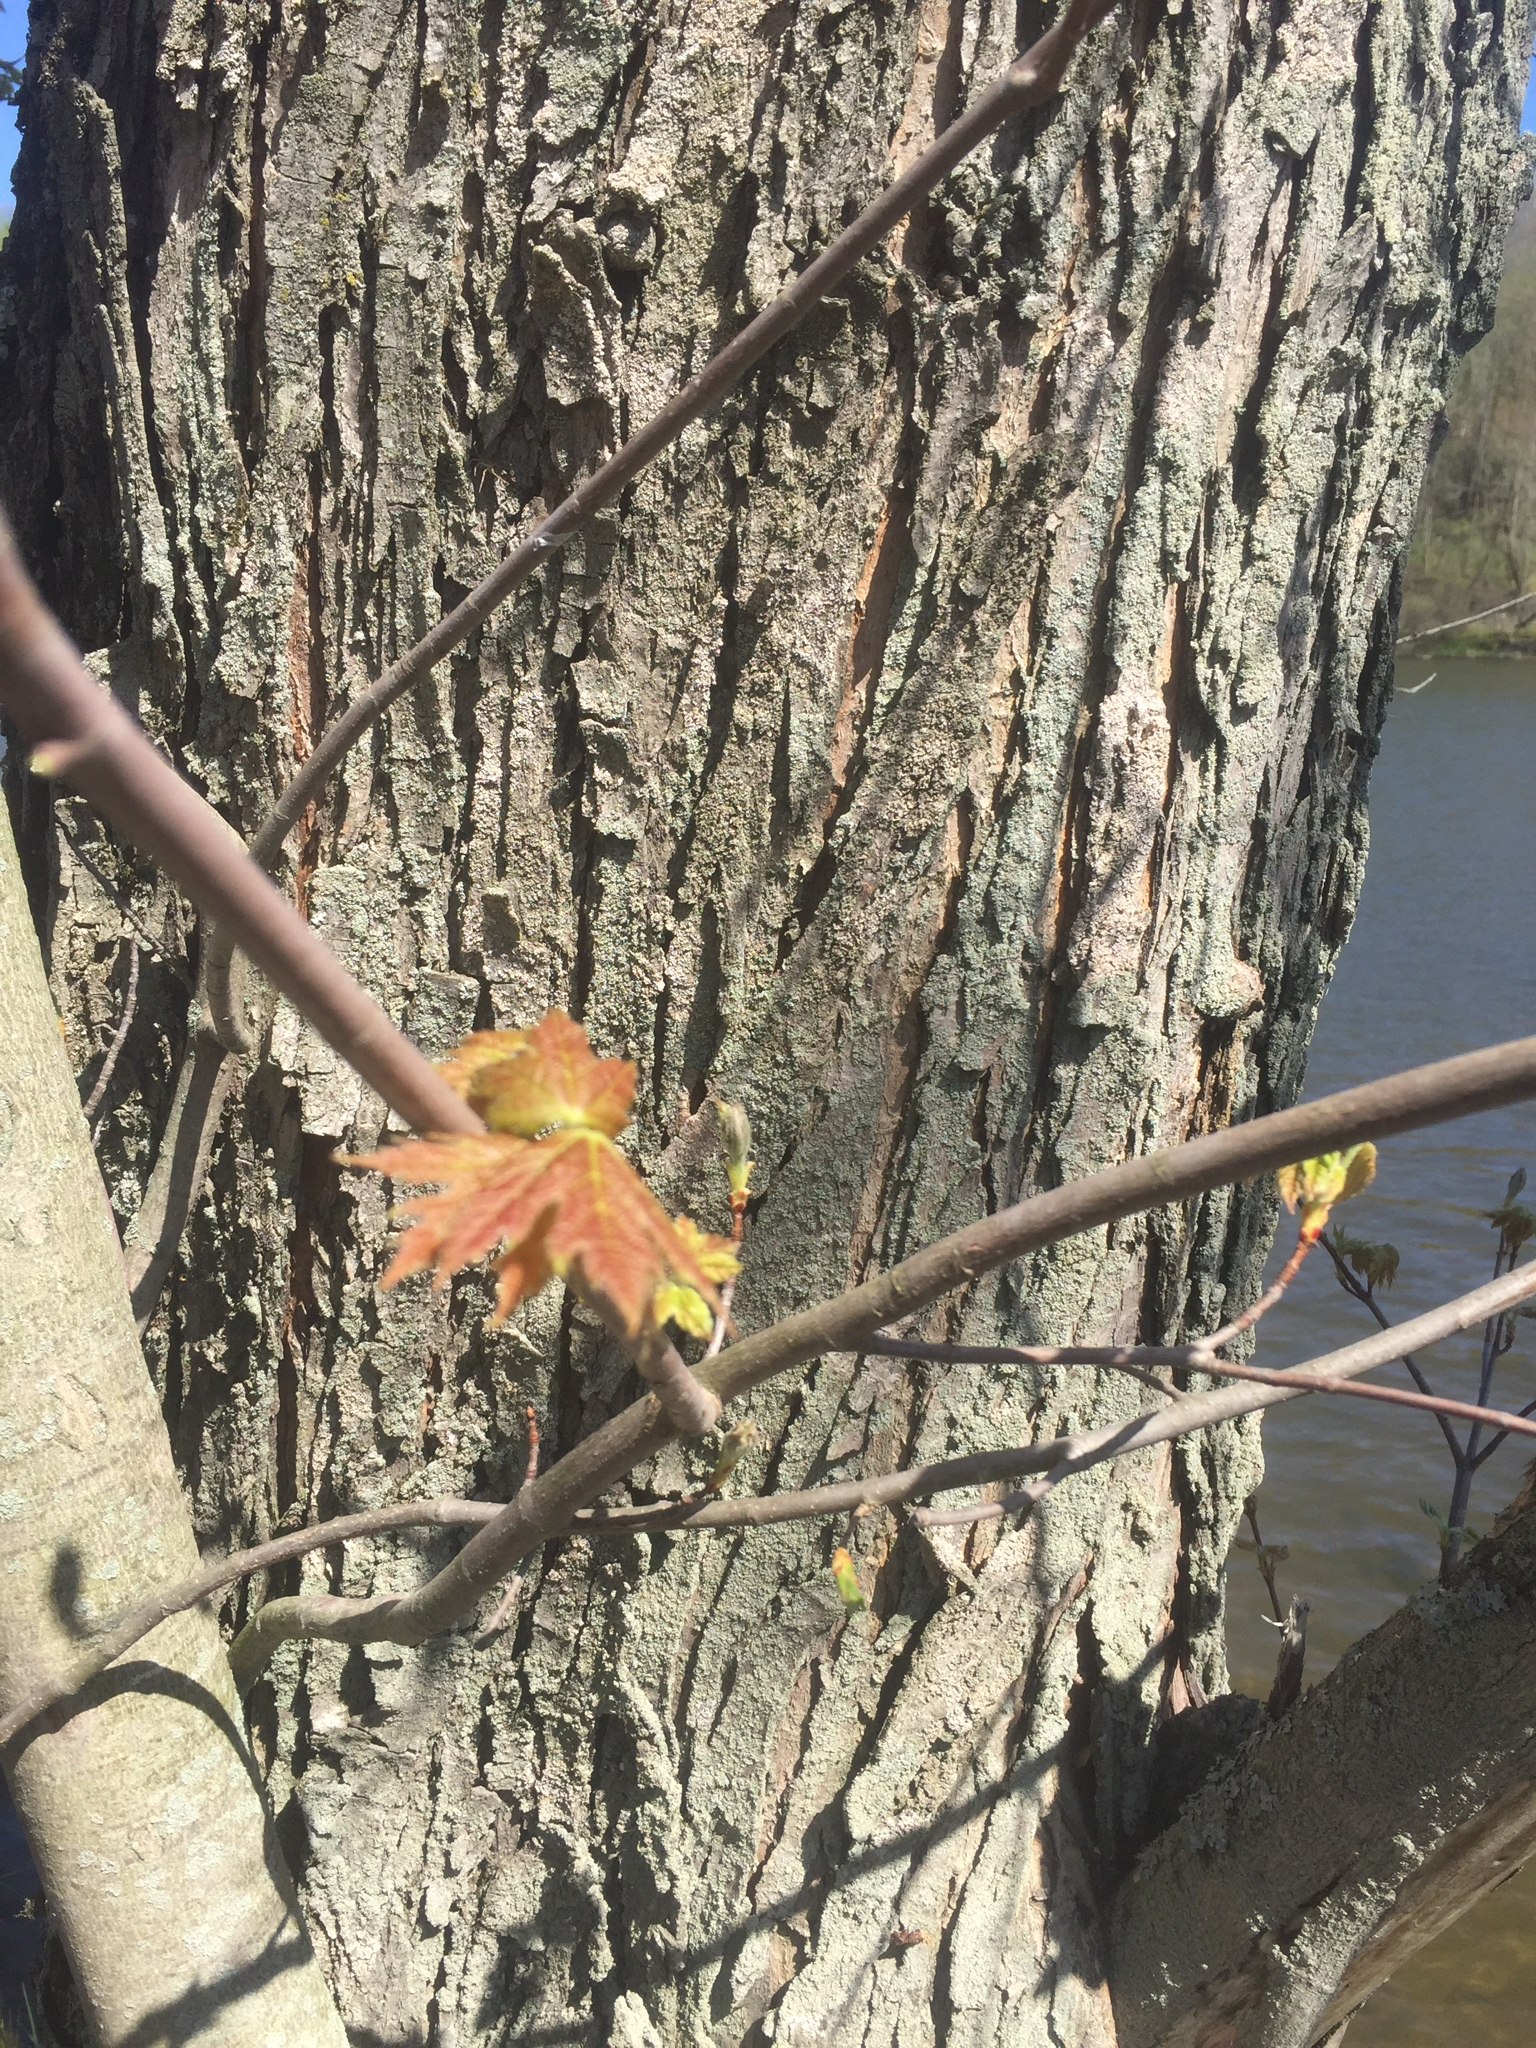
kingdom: Plantae
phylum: Tracheophyta
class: Magnoliopsida
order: Sapindales
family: Sapindaceae
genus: Acer
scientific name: Acer saccharinum
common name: Silver maple
